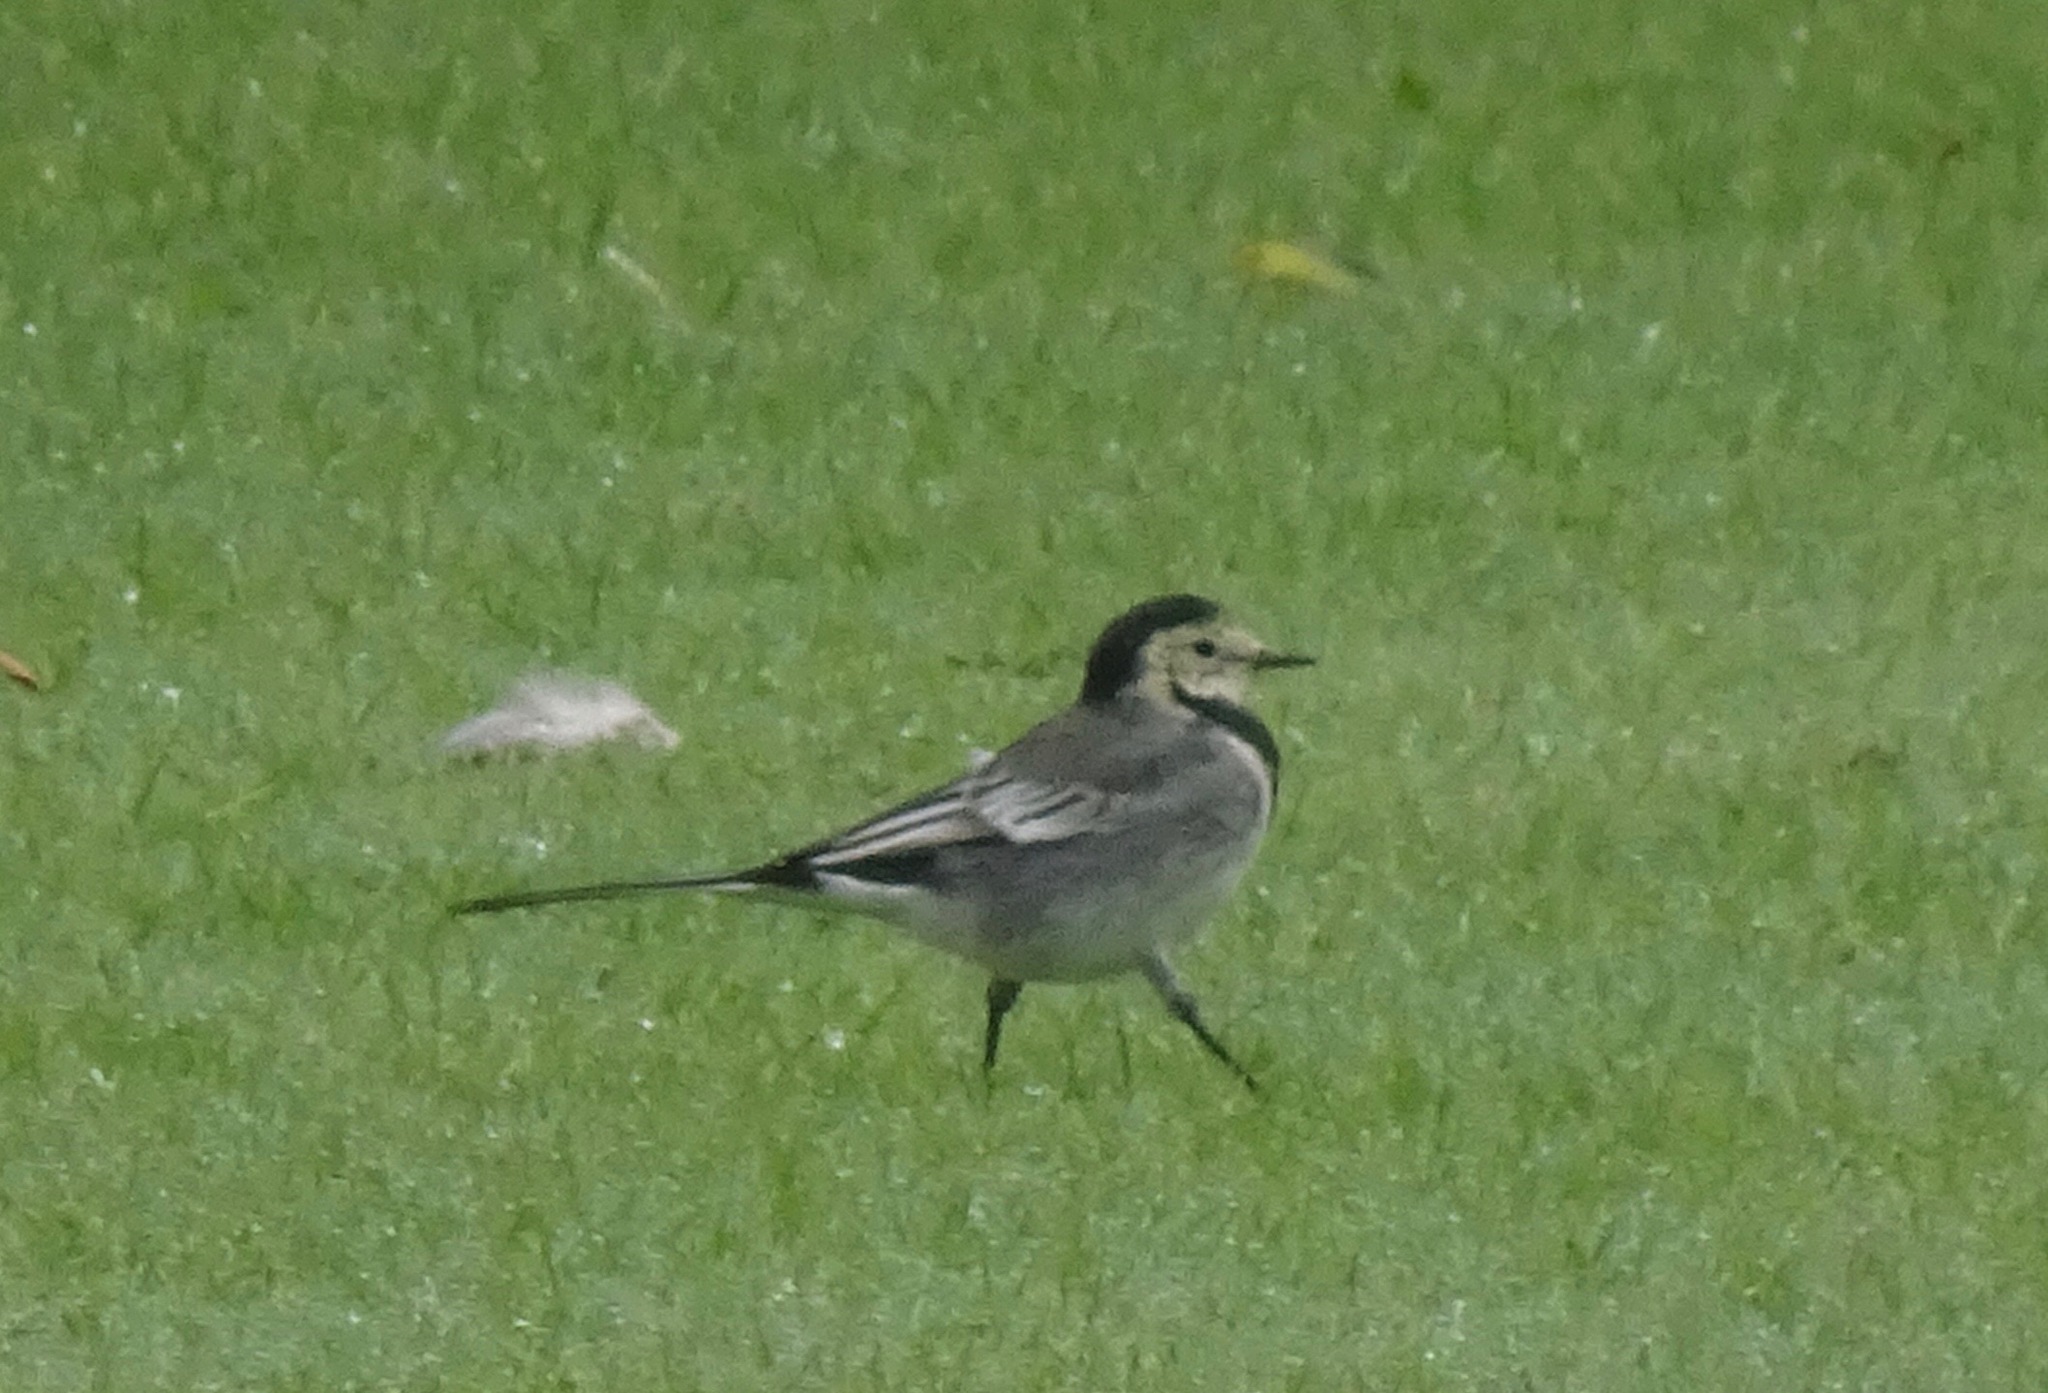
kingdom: Animalia
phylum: Chordata
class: Aves
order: Passeriformes
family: Motacillidae
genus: Motacilla
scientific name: Motacilla alba
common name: White wagtail
